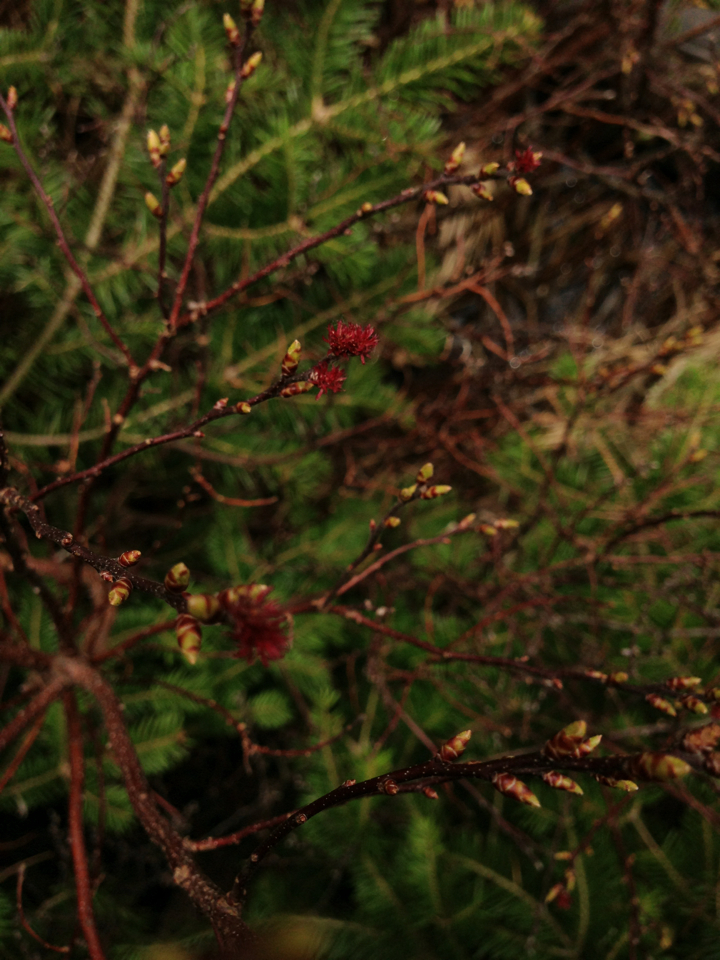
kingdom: Plantae
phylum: Tracheophyta
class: Magnoliopsida
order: Fagales
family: Betulaceae
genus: Corylus
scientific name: Corylus cornuta
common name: Beaked hazel
